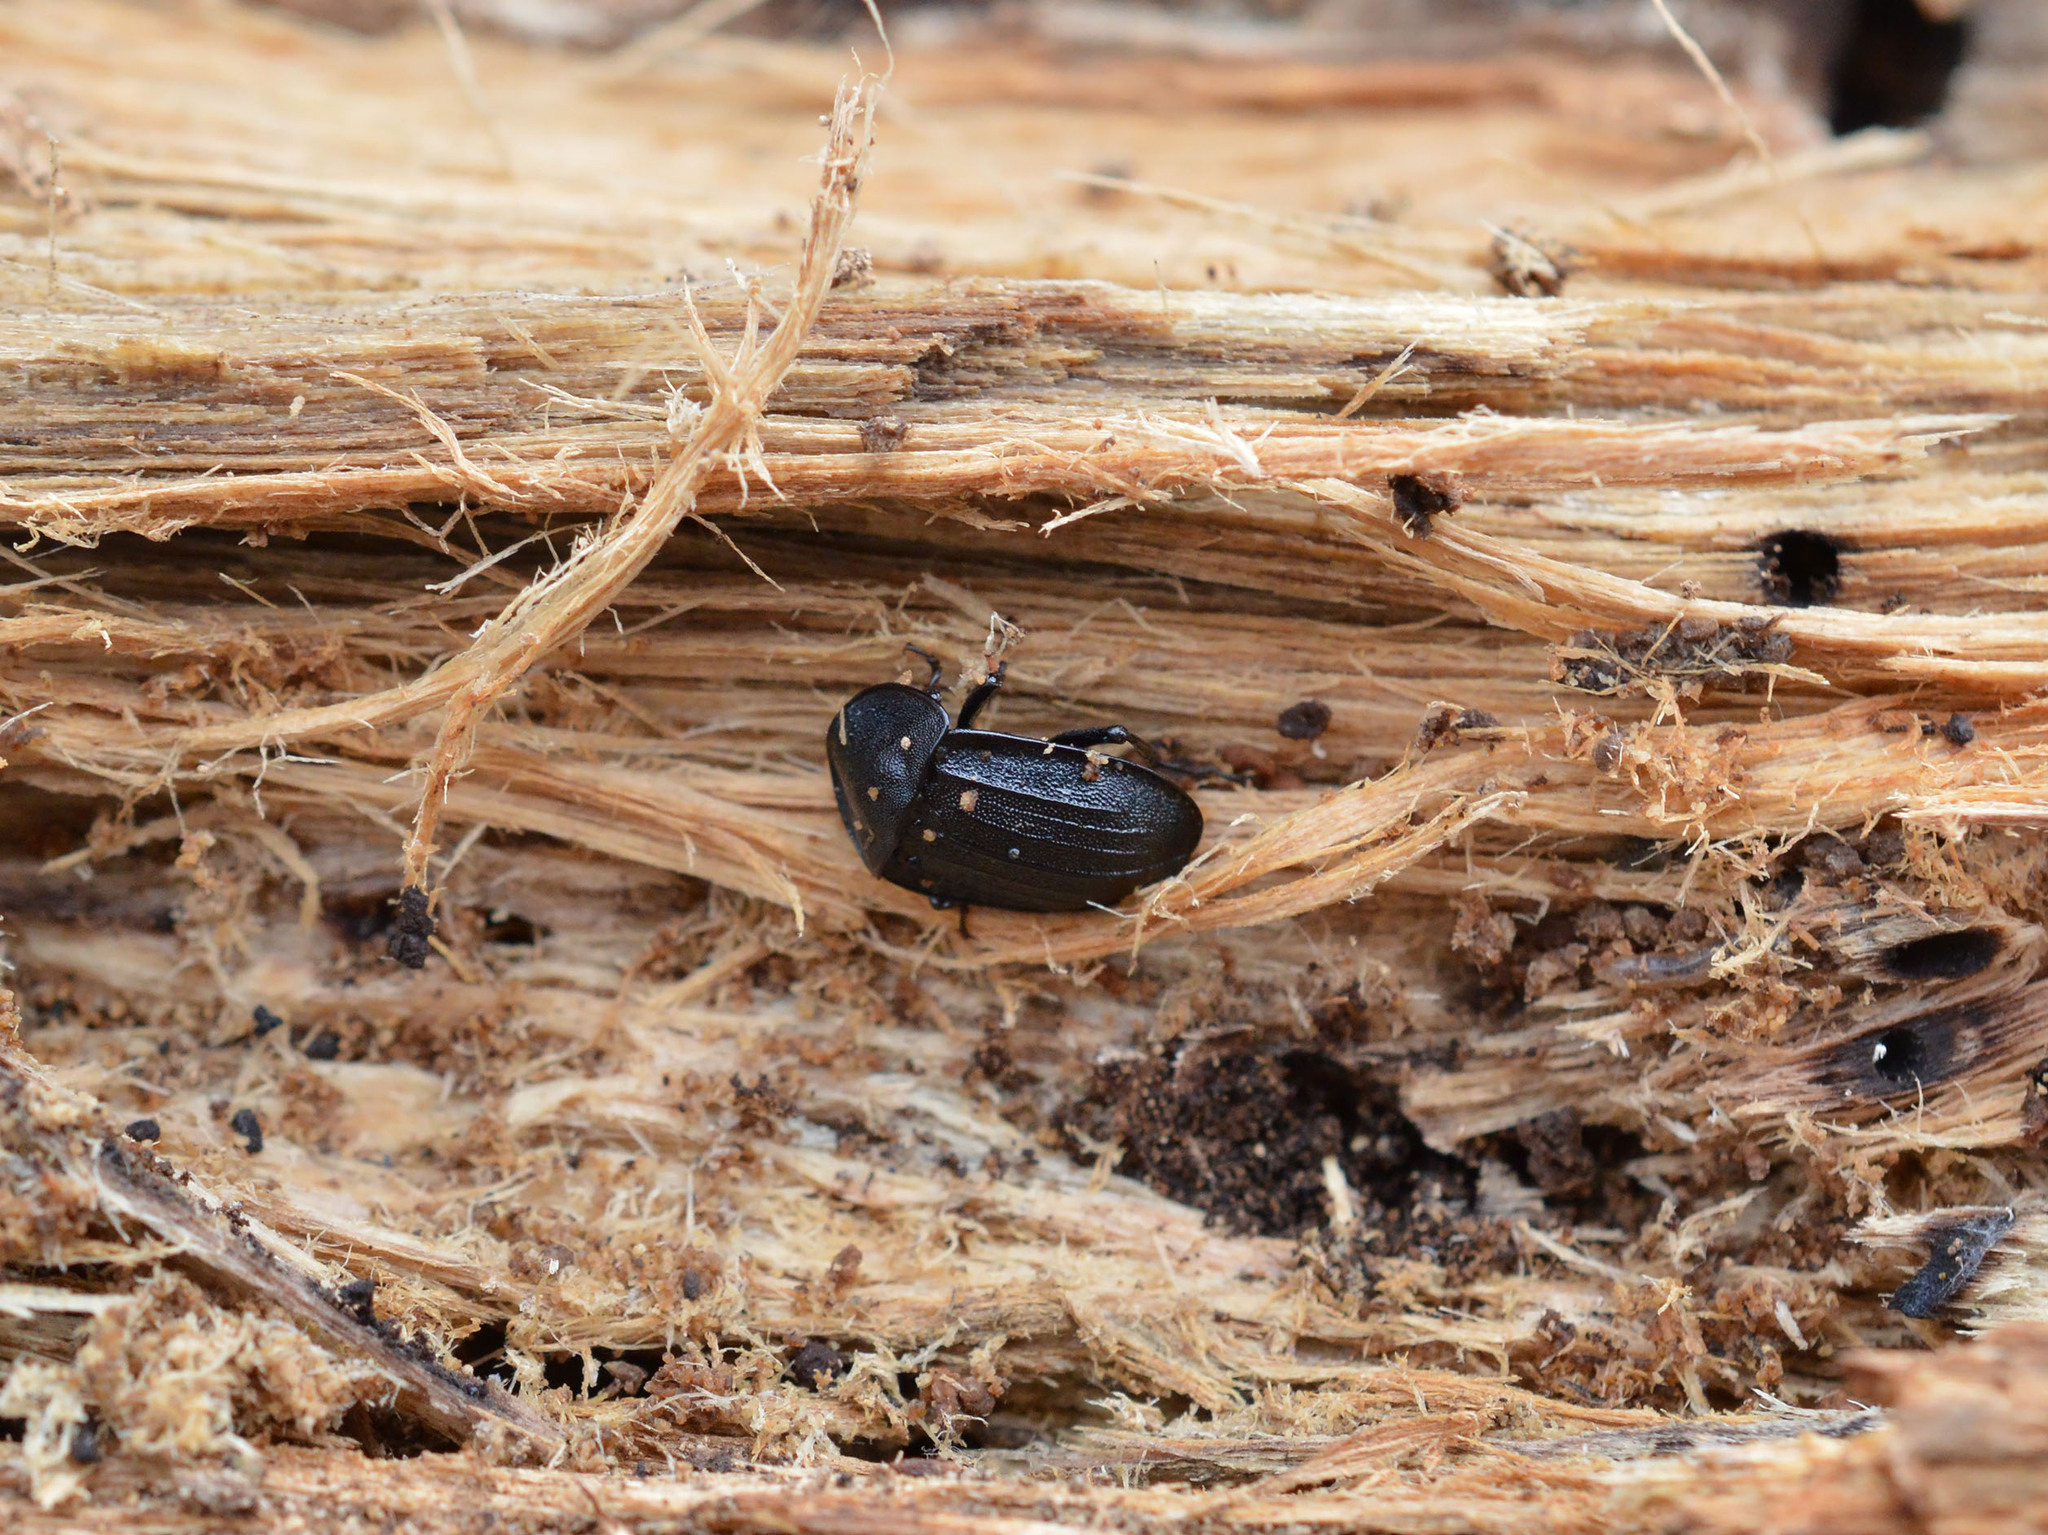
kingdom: Animalia
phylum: Arthropoda
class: Insecta
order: Coleoptera
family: Staphylinidae
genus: Silpha
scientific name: Silpha atrata
